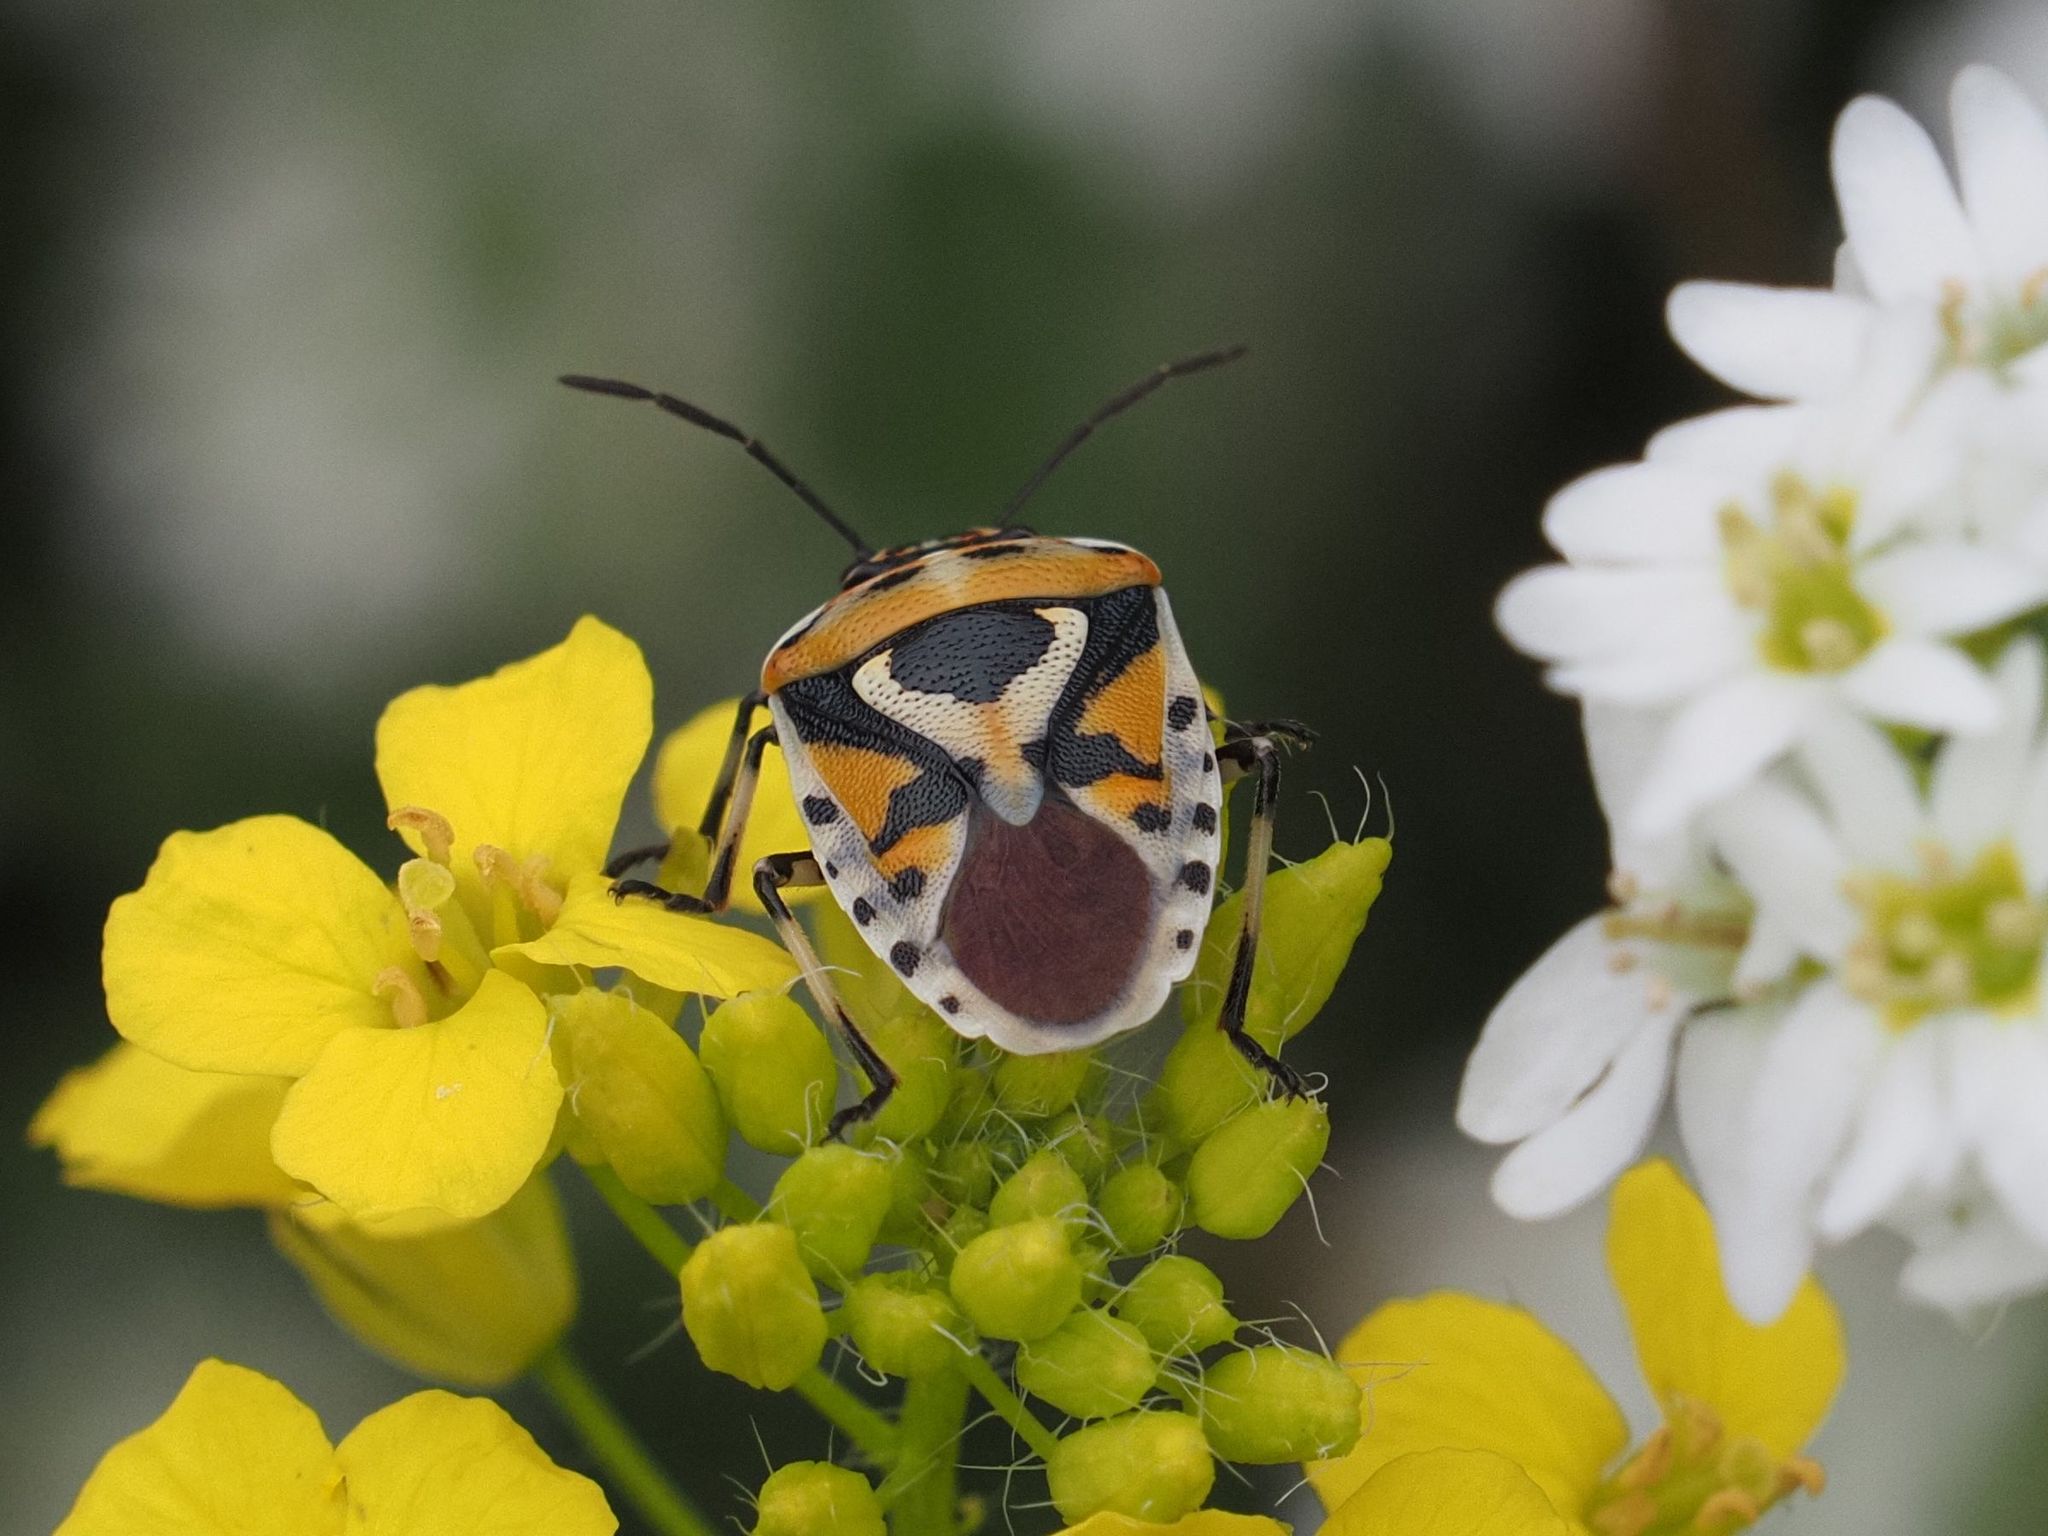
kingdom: Animalia
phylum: Arthropoda
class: Insecta
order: Hemiptera
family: Pentatomidae
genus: Eurydema
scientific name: Eurydema ornata
